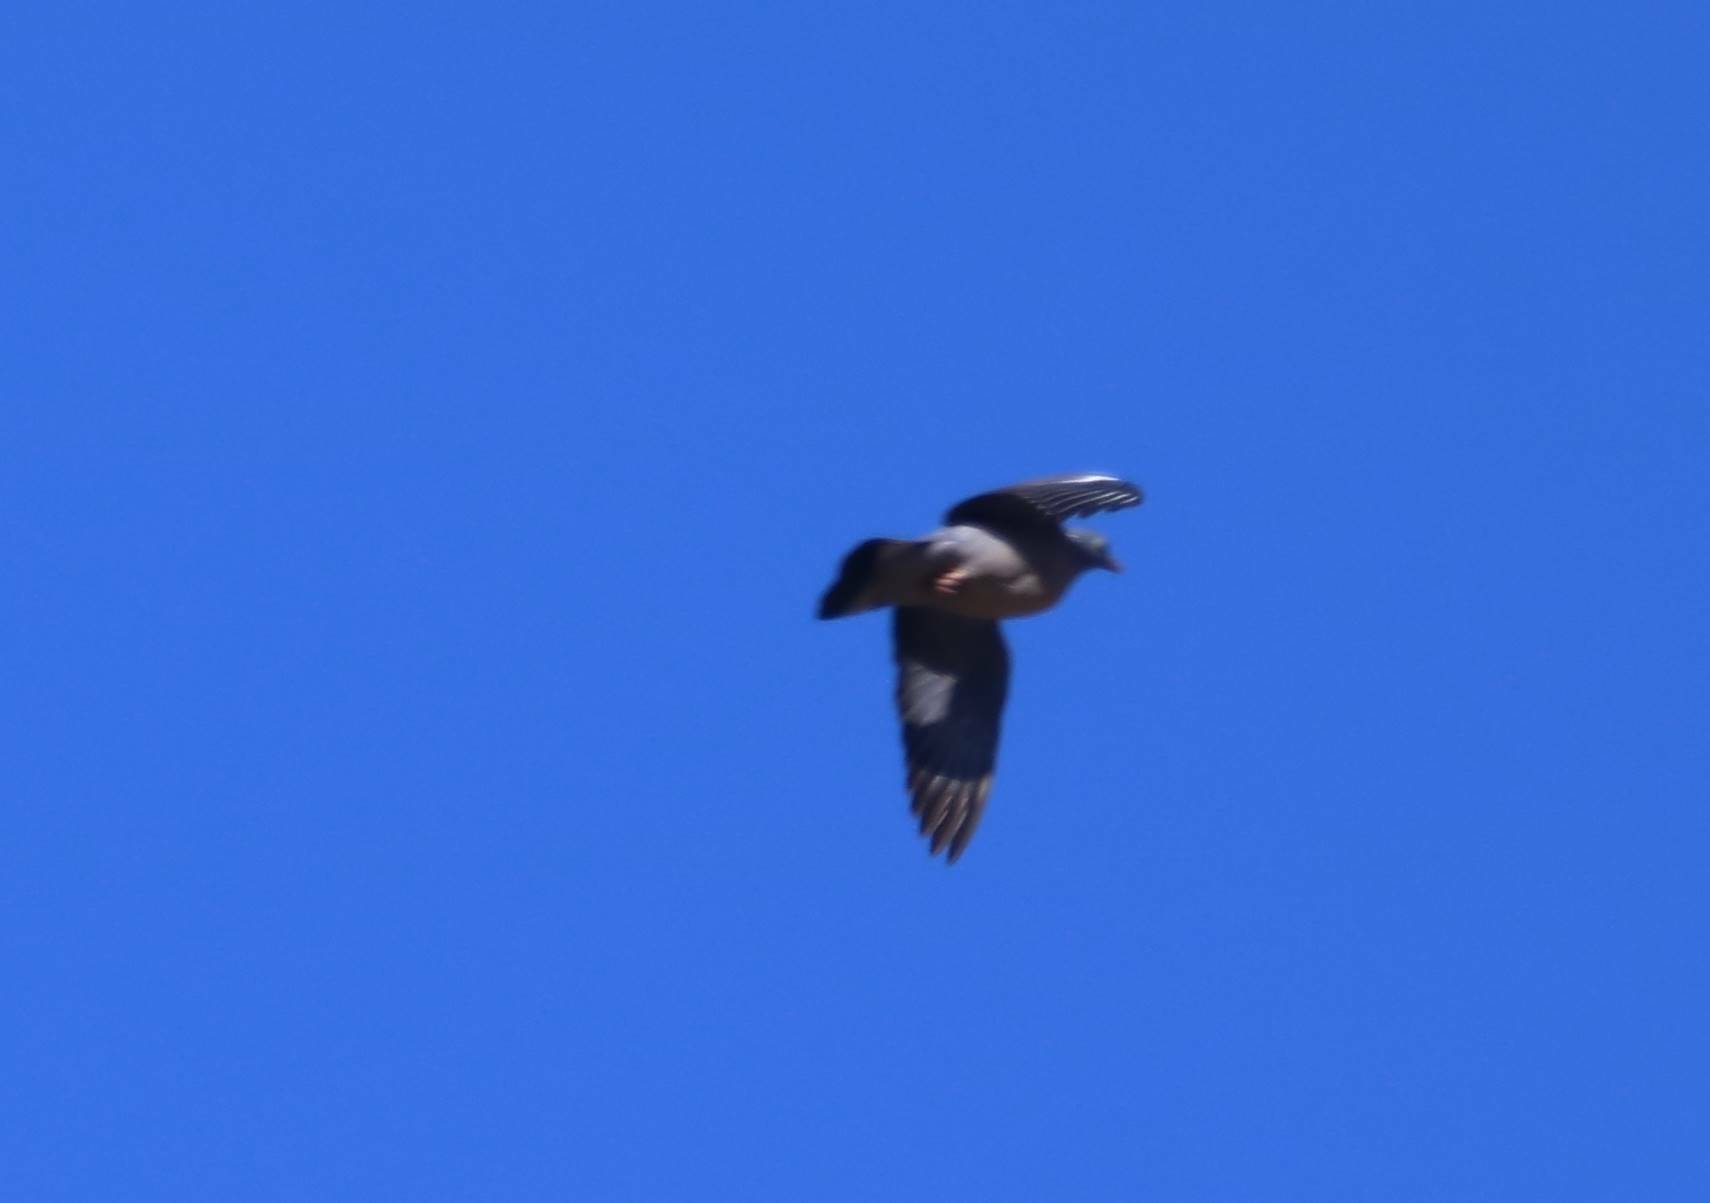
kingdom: Animalia
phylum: Chordata
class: Aves
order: Columbiformes
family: Columbidae
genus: Columba
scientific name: Columba palumbus
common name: Common wood pigeon
